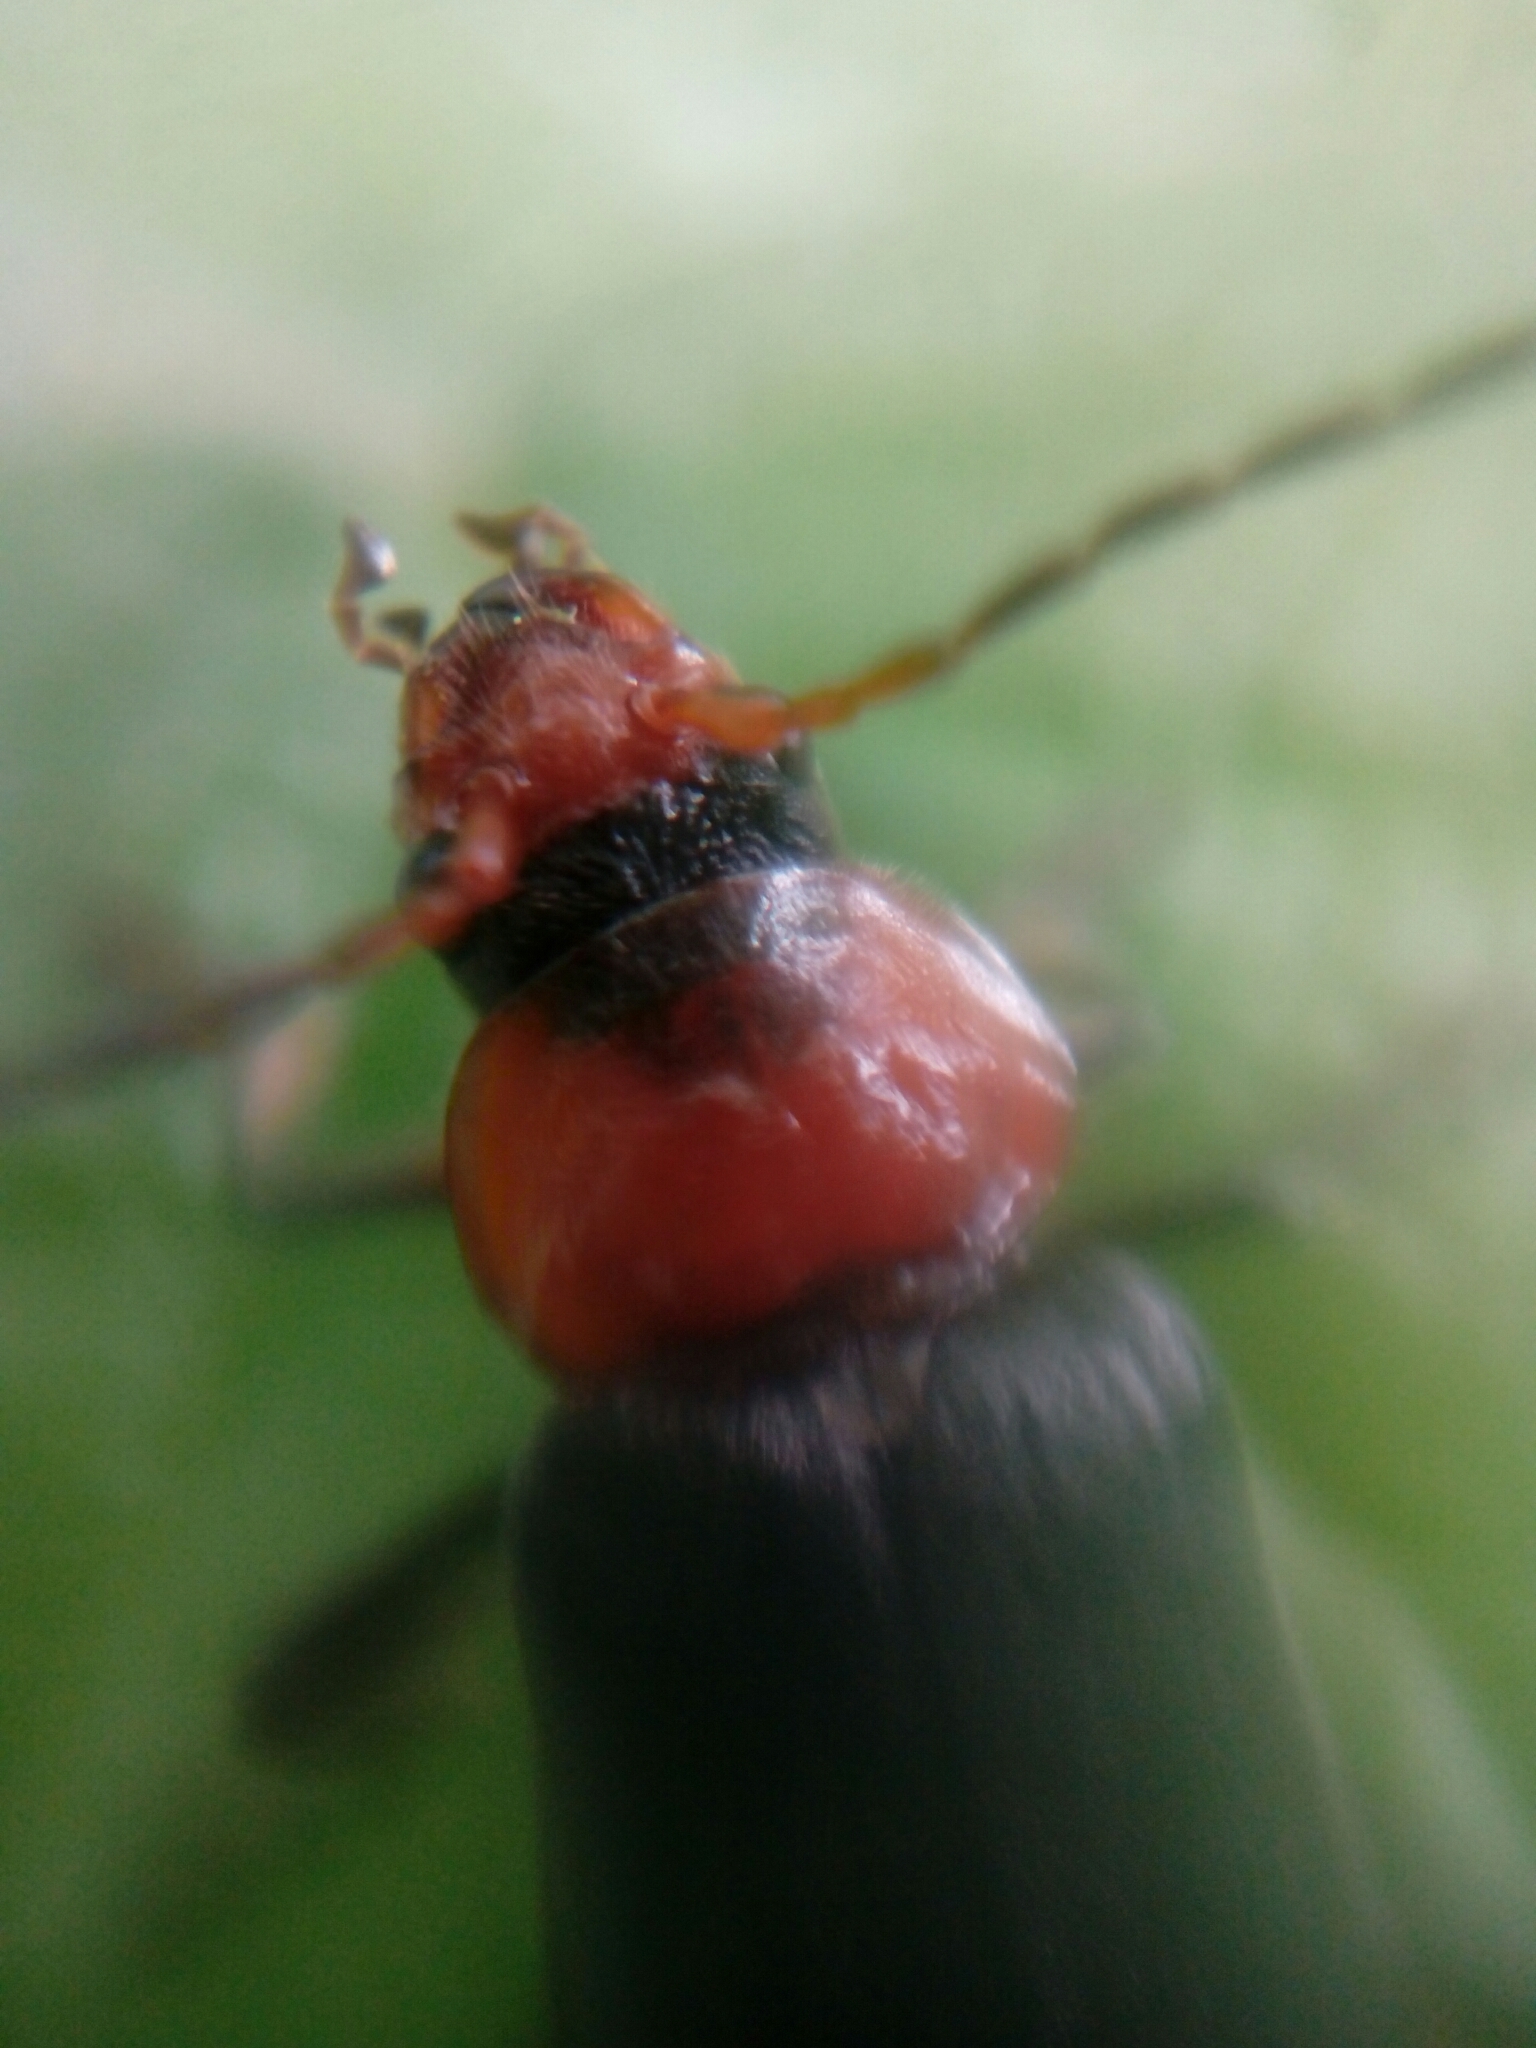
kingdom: Animalia
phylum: Arthropoda
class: Insecta
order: Coleoptera
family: Cantharidae
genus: Cantharis
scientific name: Cantharis fusca
